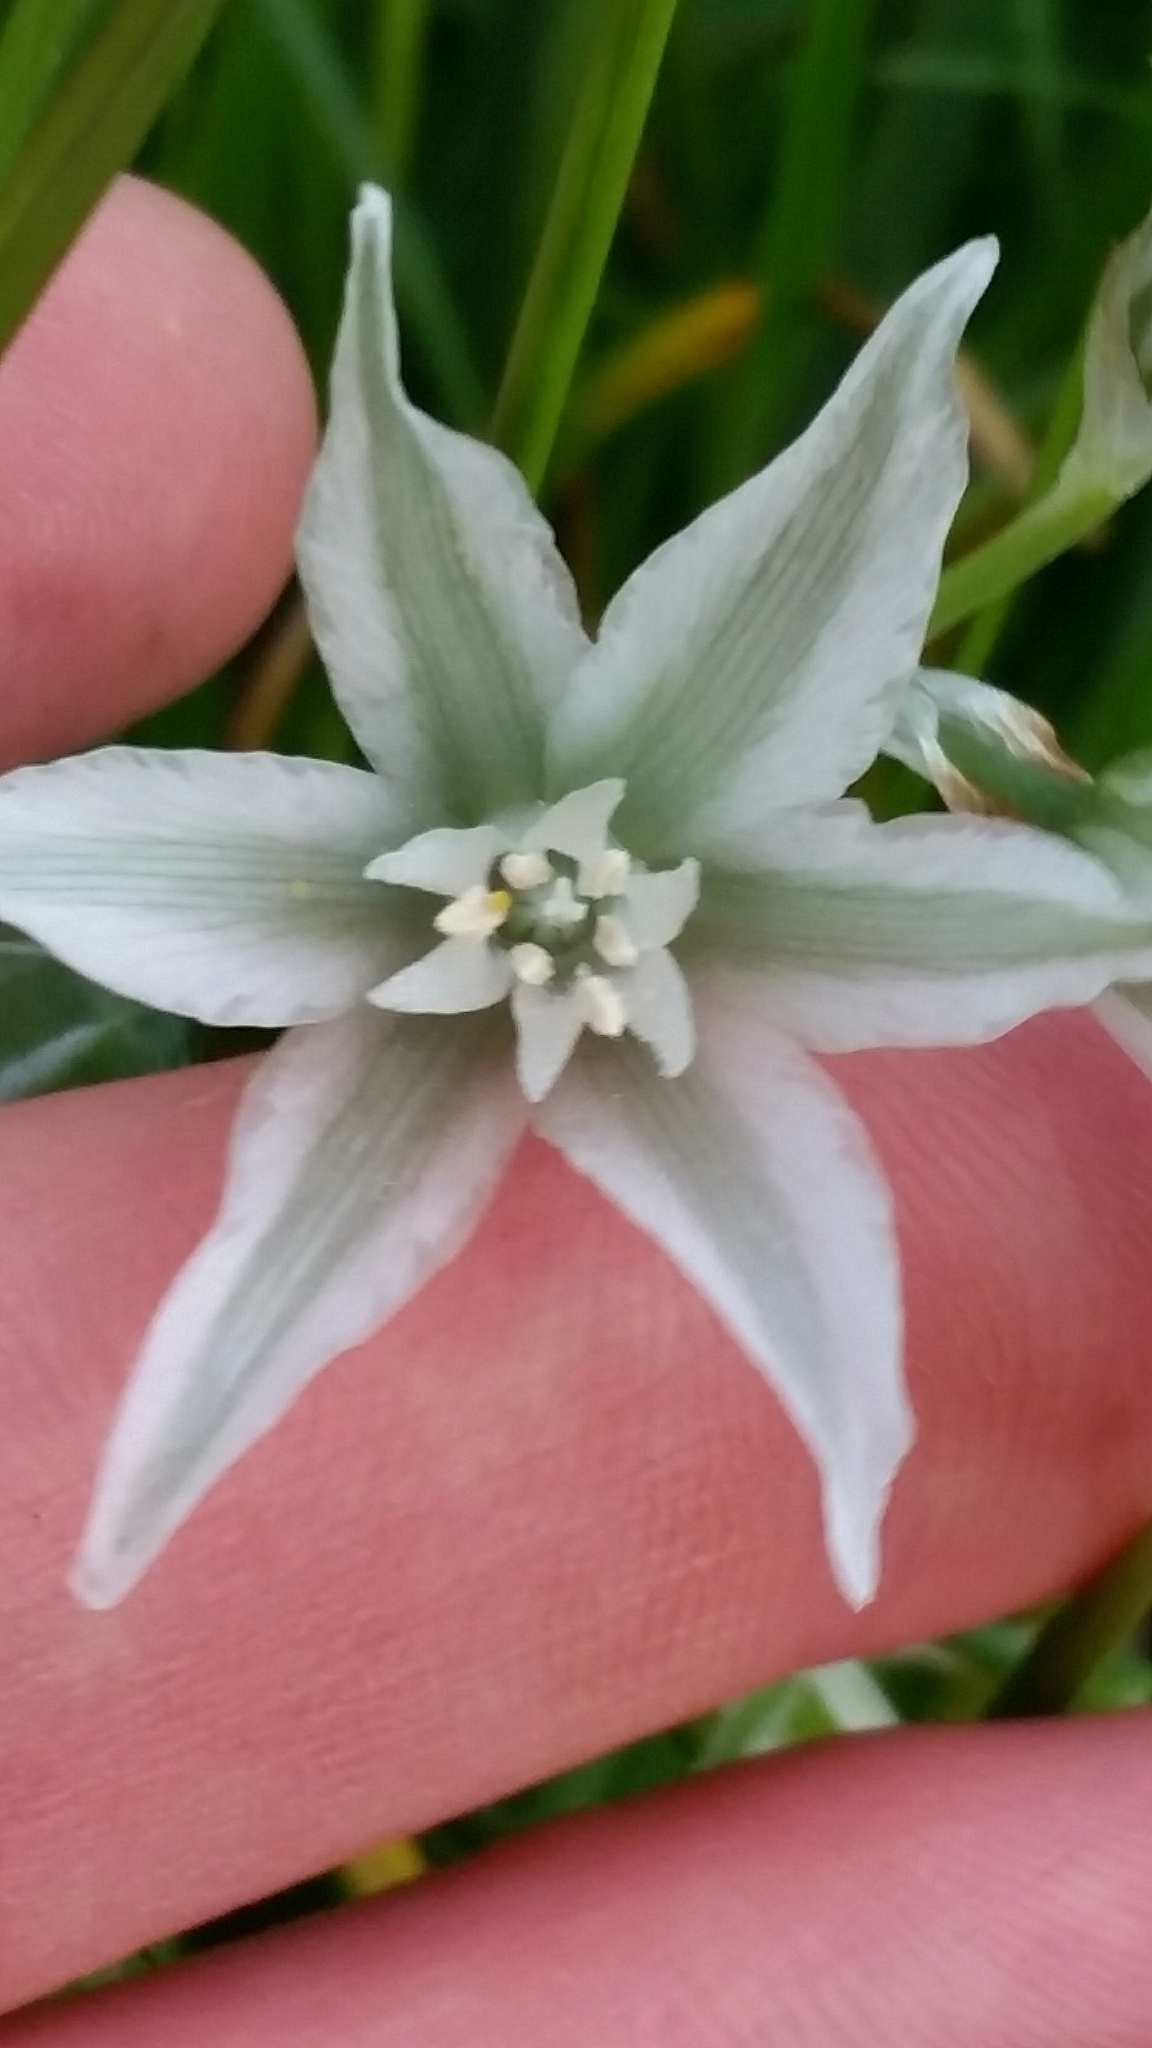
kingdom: Plantae
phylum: Tracheophyta
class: Liliopsida
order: Asparagales
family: Asparagaceae
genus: Ornithogalum
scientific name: Ornithogalum nutans
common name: Drooping star-of-bethlehem
